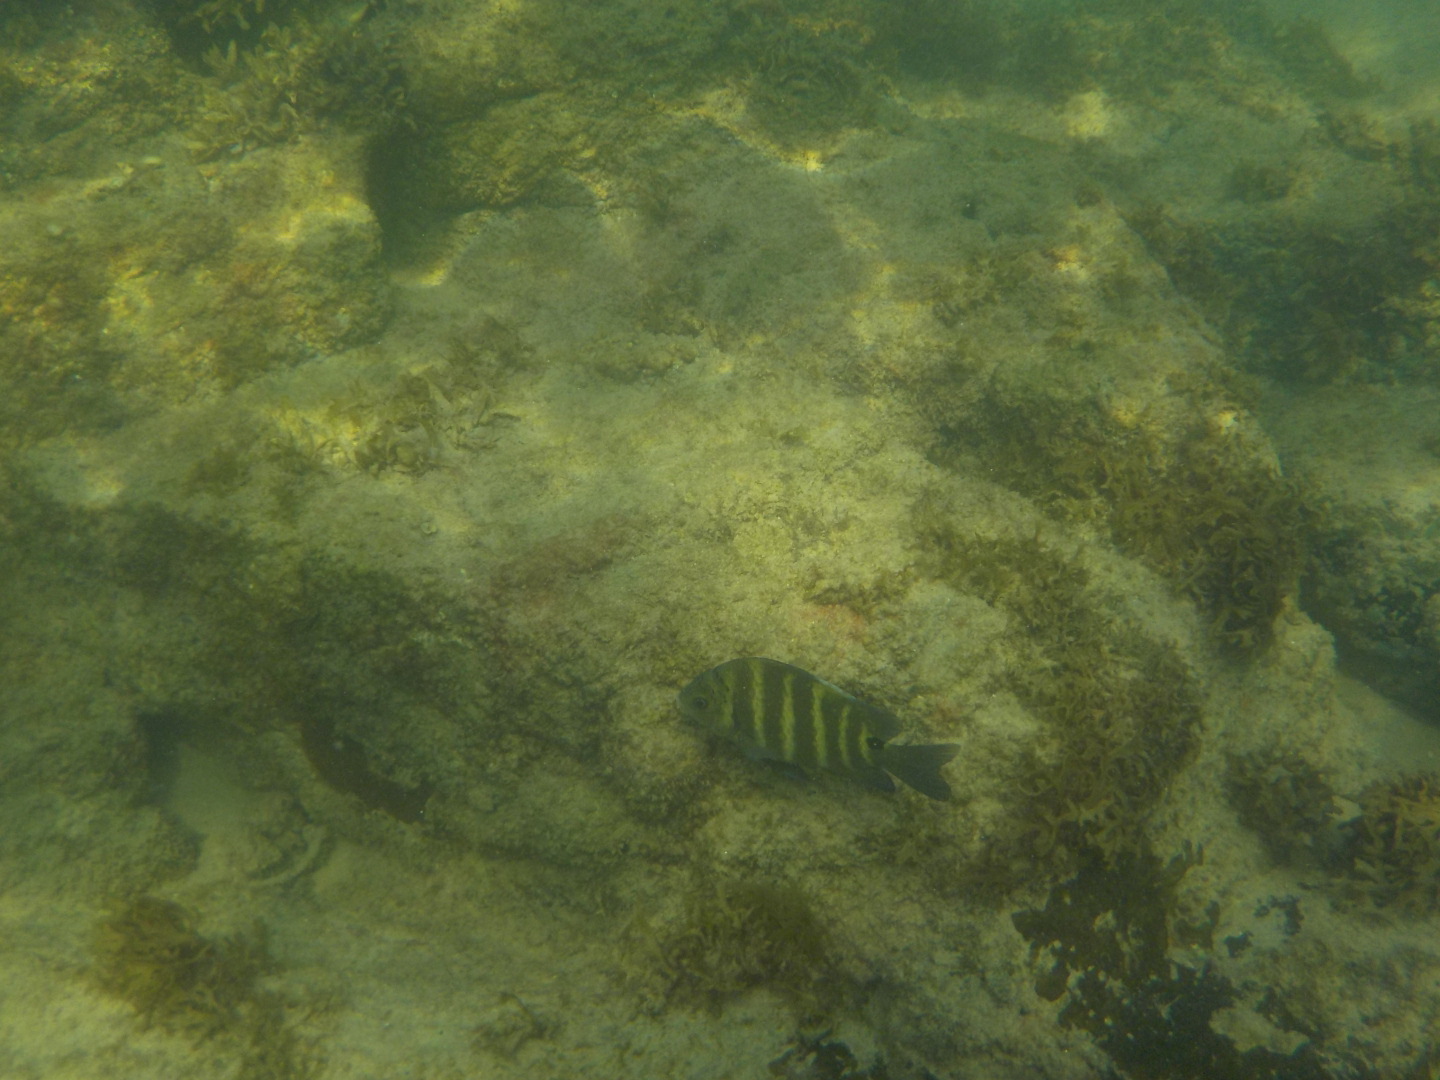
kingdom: Animalia
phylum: Chordata
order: Perciformes
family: Pomacentridae
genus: Abudefduf
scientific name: Abudefduf sordidus
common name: Blackspot sergeant
